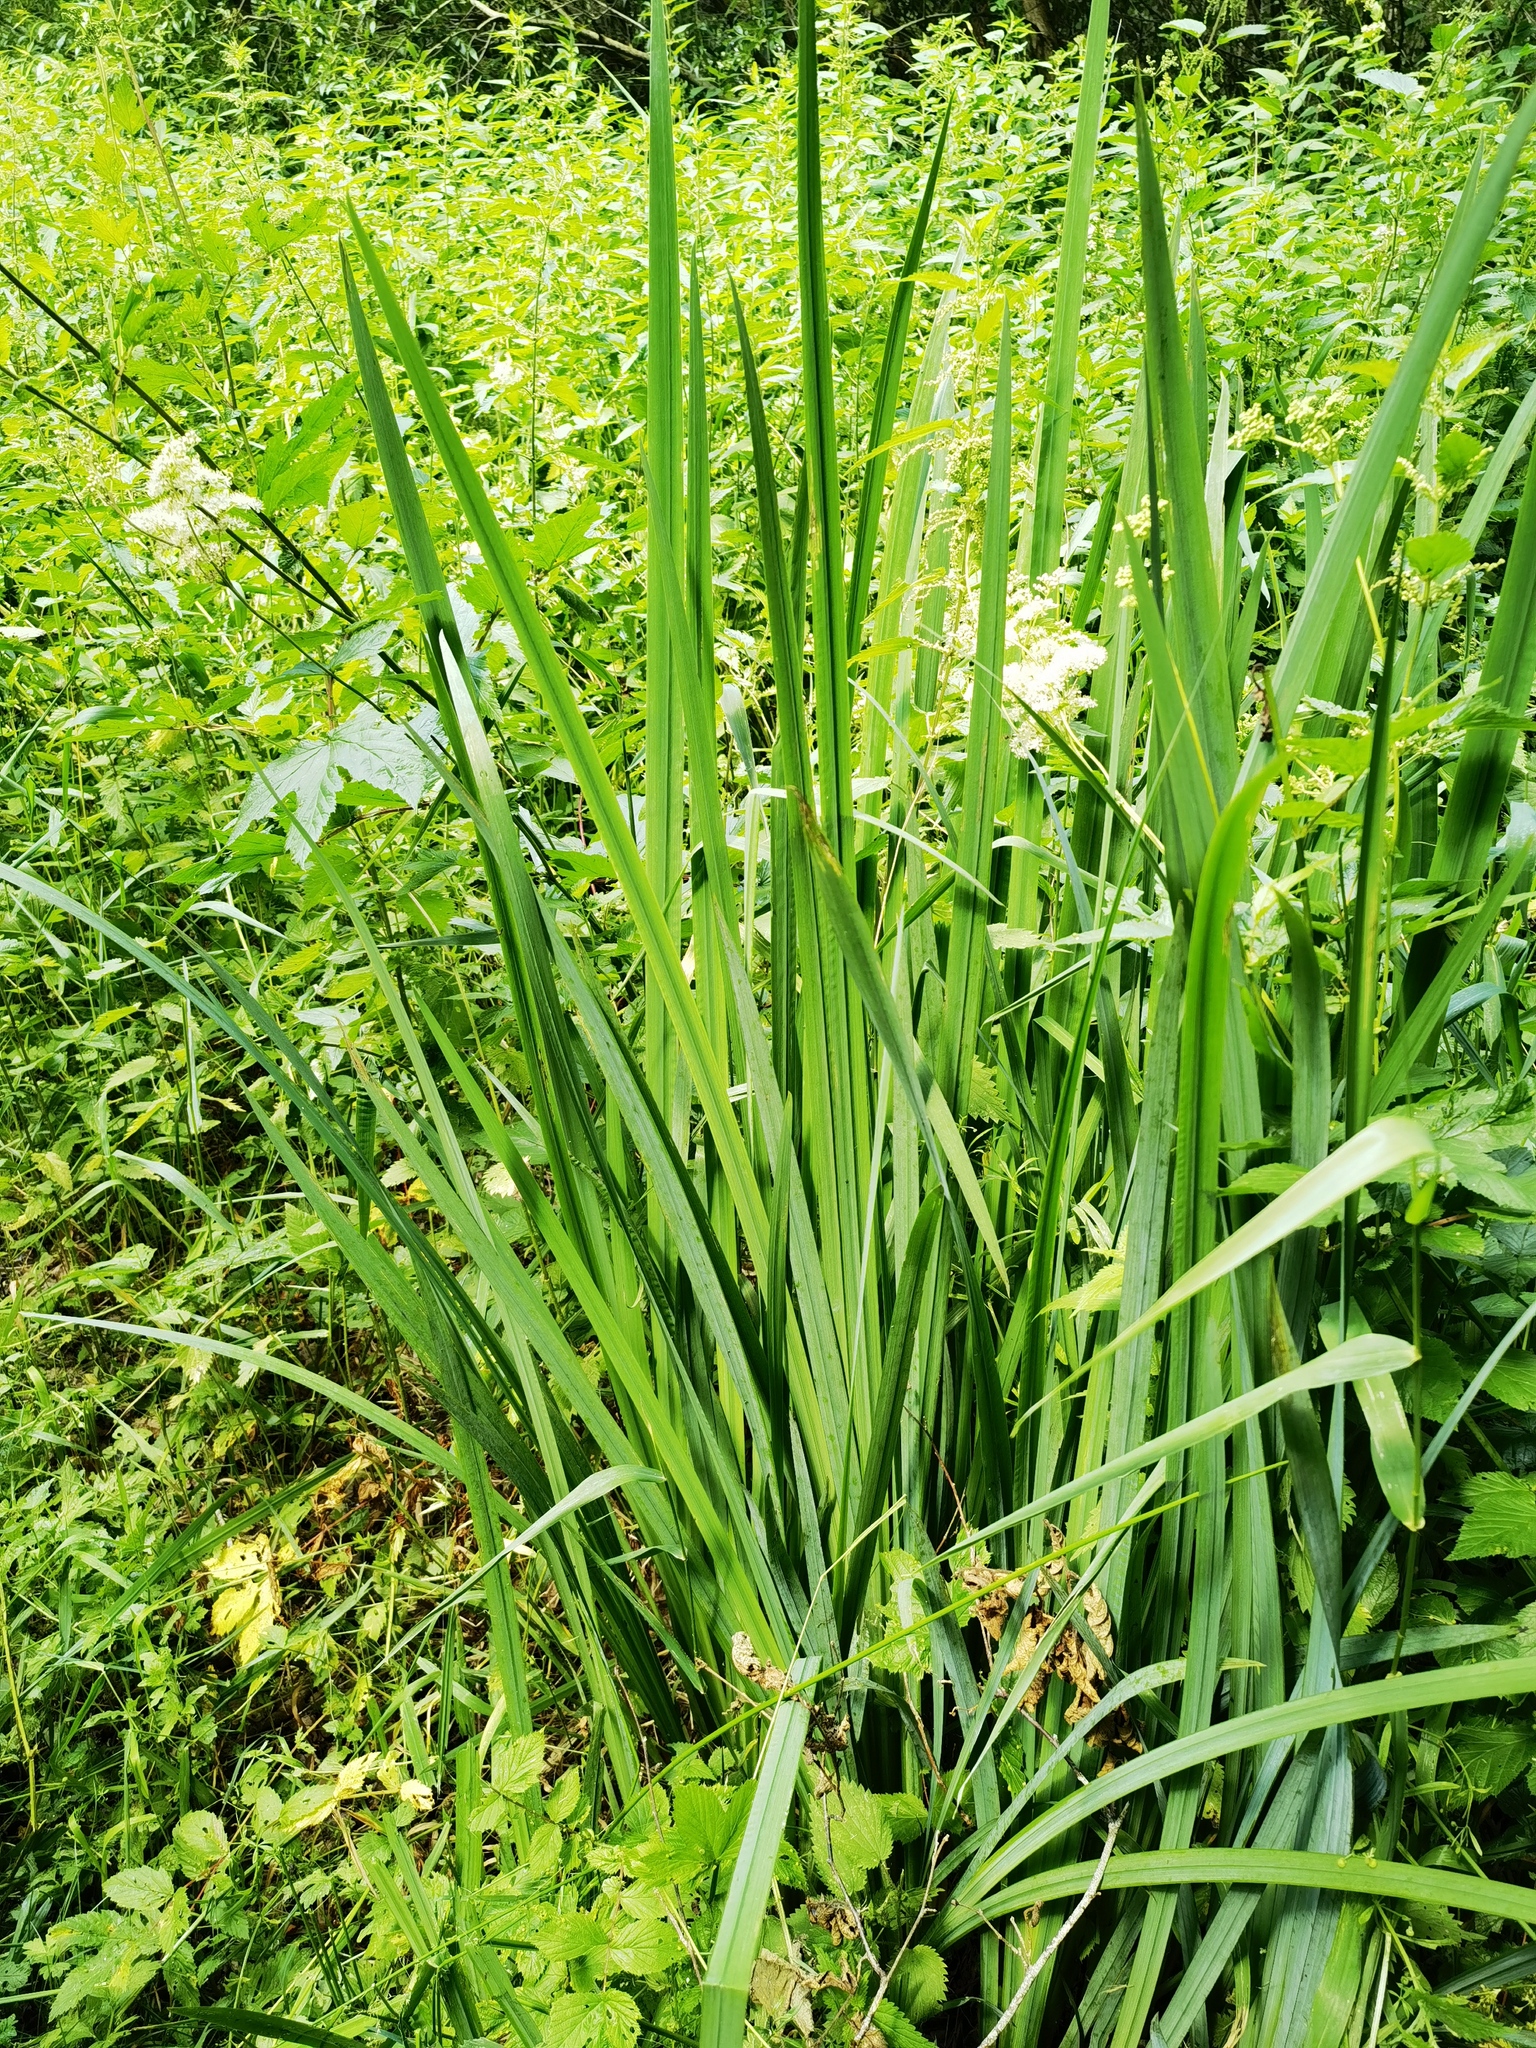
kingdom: Plantae
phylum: Tracheophyta
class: Liliopsida
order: Asparagales
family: Iridaceae
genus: Iris
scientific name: Iris pseudacorus
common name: Yellow flag
